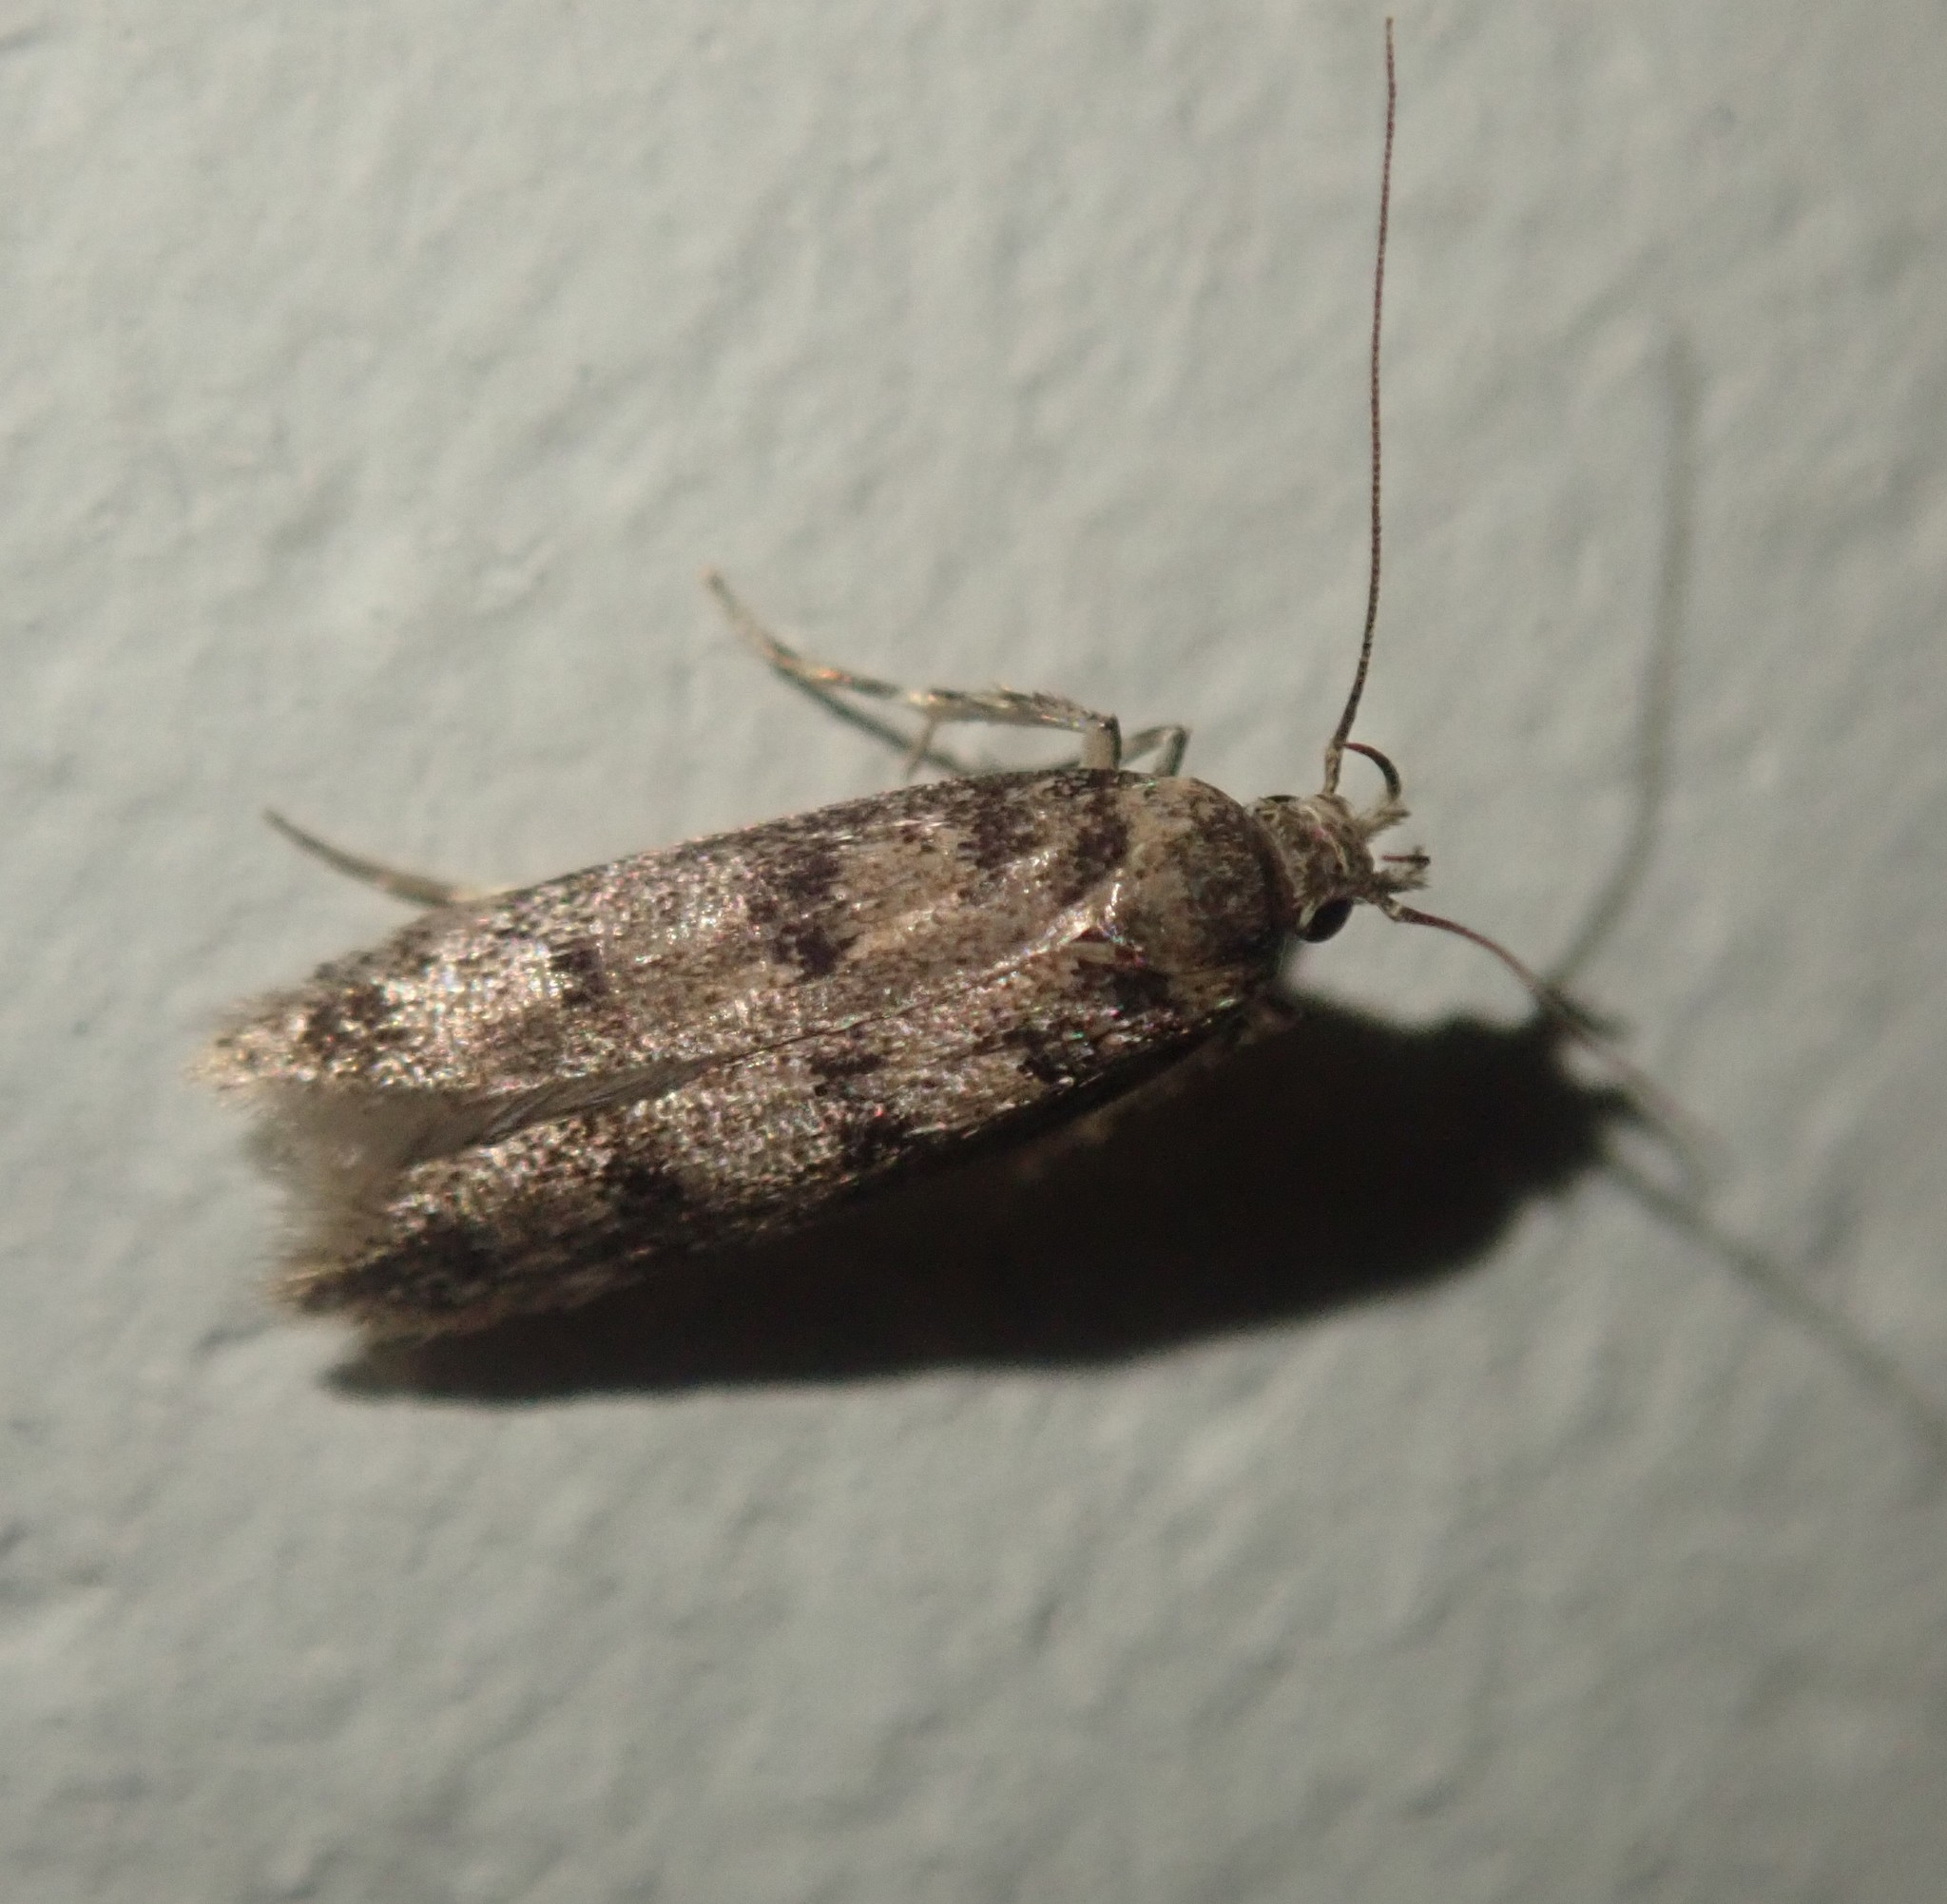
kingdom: Animalia
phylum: Arthropoda
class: Insecta
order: Lepidoptera
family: Gelechiidae
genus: Bryotropha
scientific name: Bryotropha domestica
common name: House groundling
